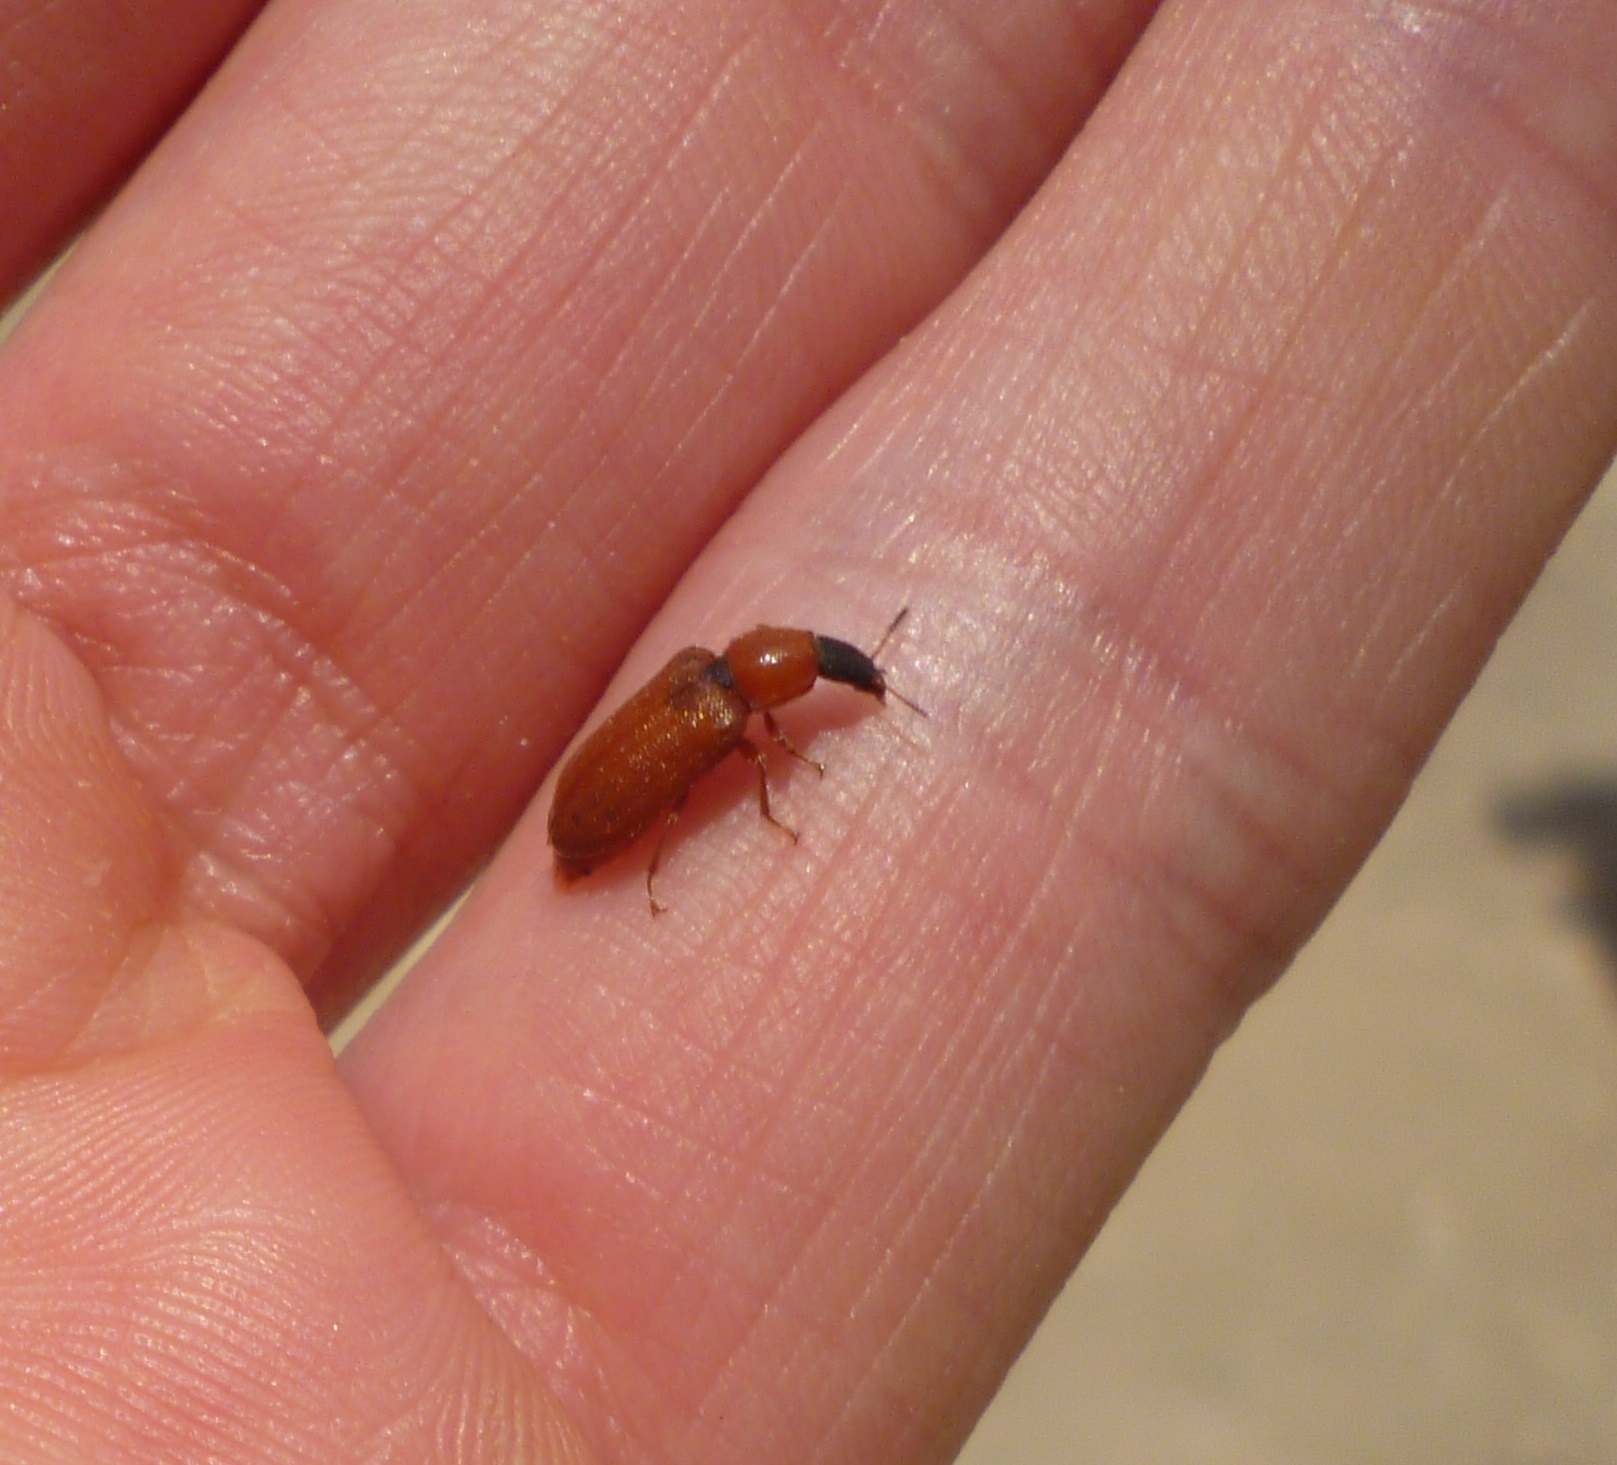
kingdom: Animalia
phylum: Arthropoda
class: Insecta
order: Coleoptera
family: Melyridae
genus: Melyris
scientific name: Melyris
